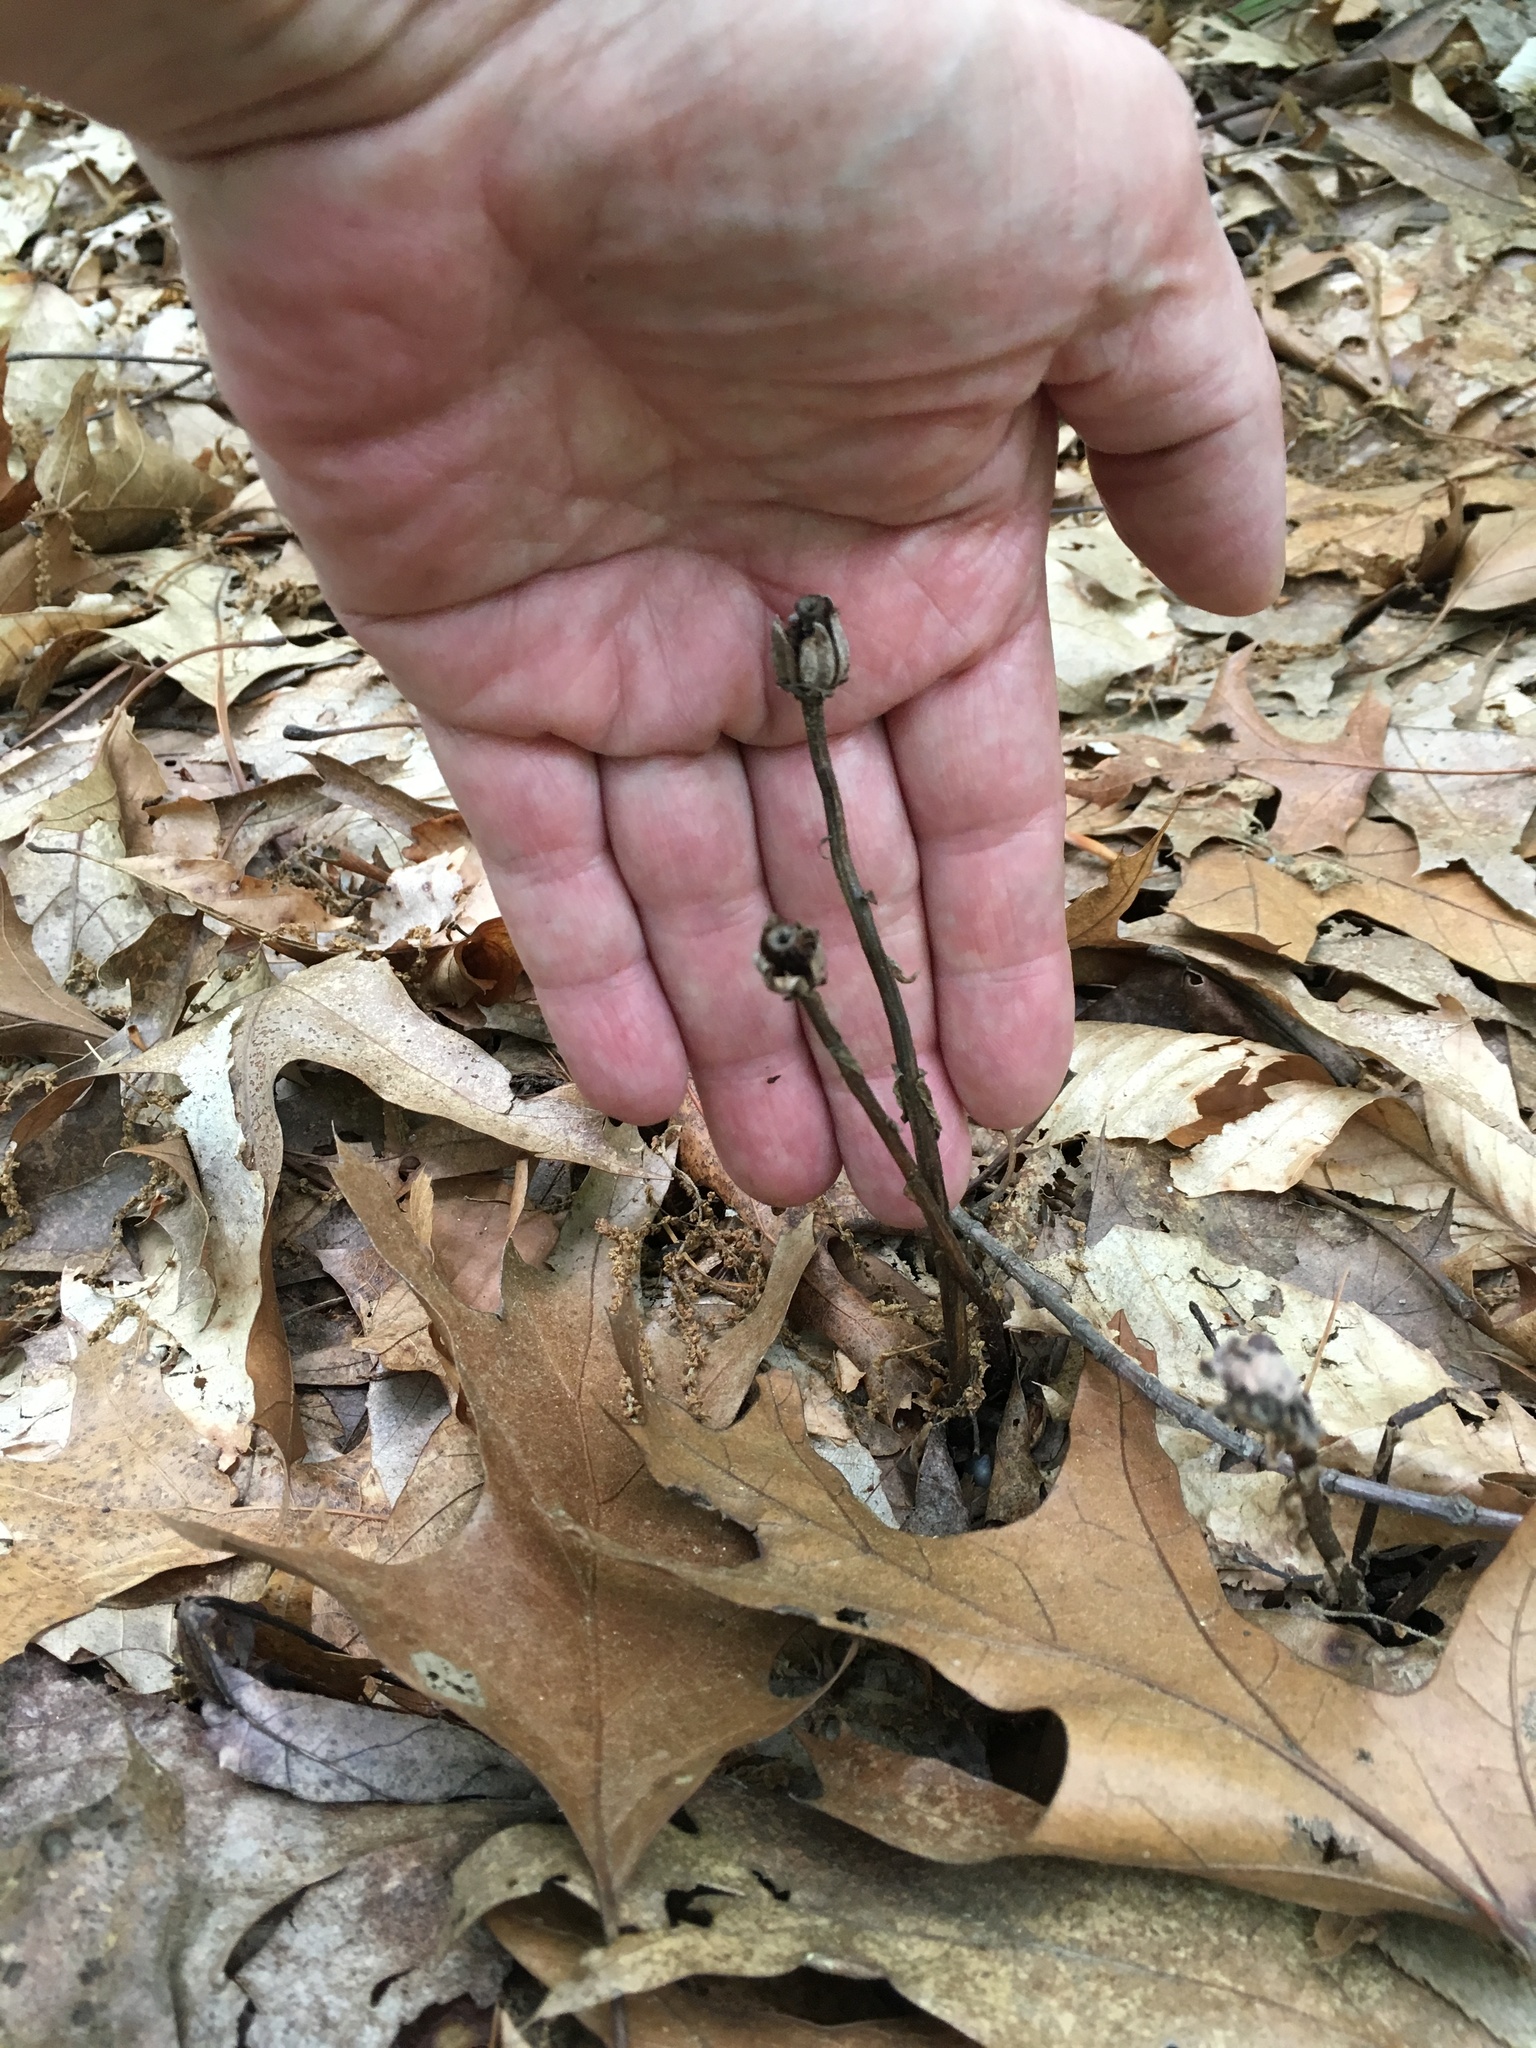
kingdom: Plantae
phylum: Tracheophyta
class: Magnoliopsida
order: Ericales
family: Ericaceae
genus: Monotropa
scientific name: Monotropa uniflora
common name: Convulsion root
